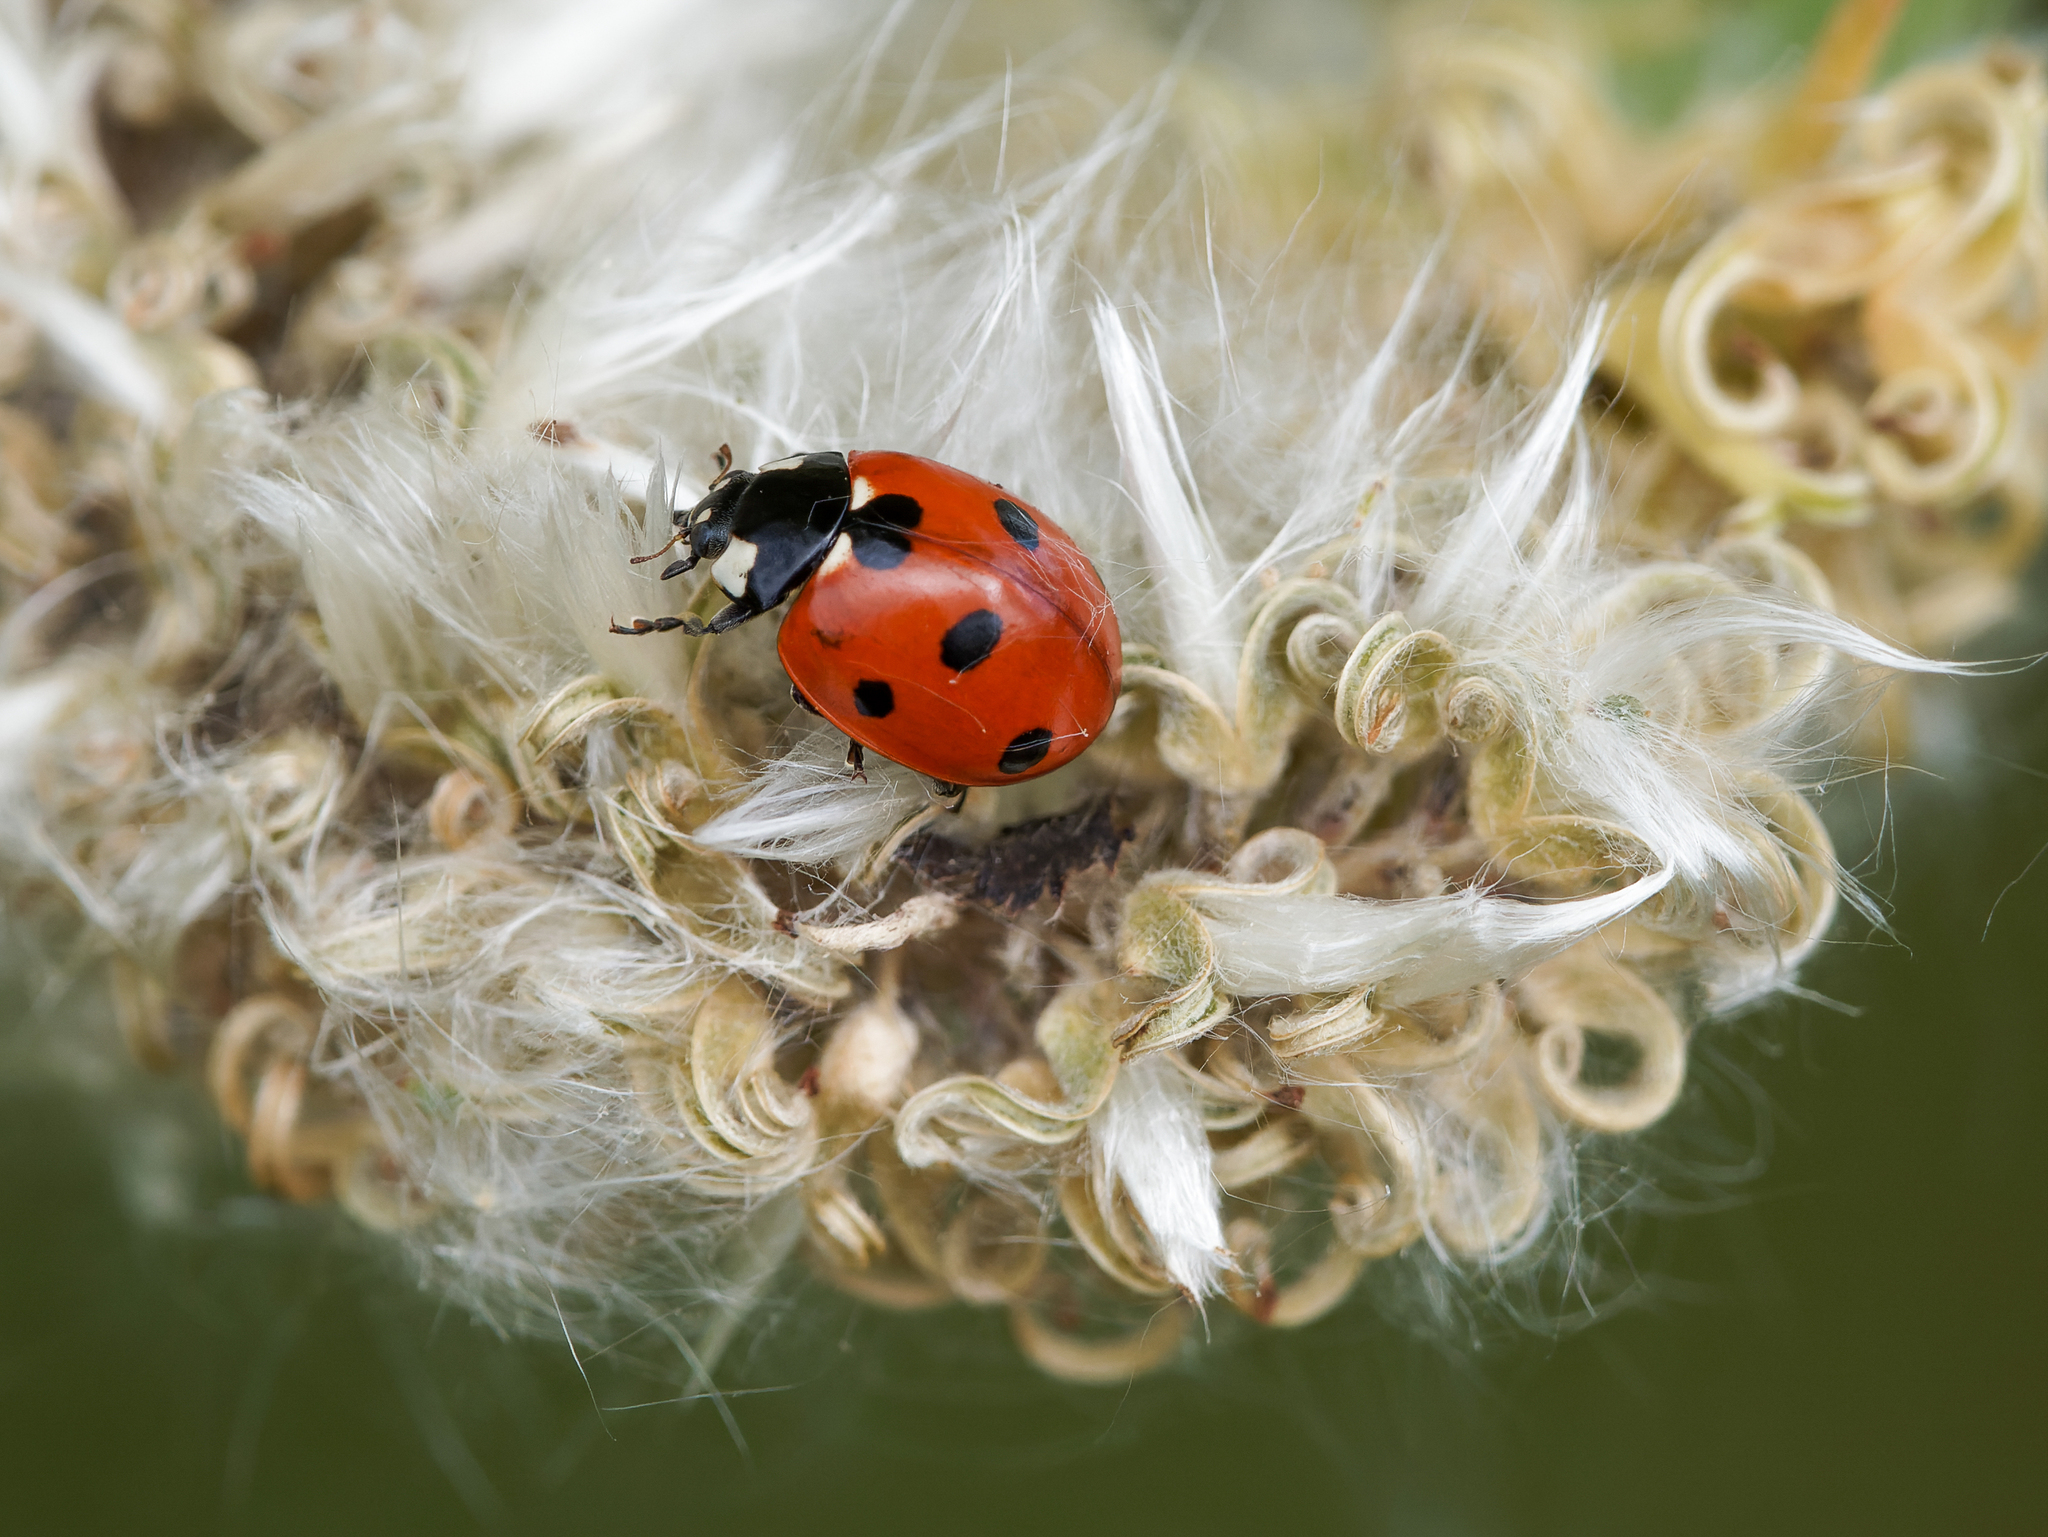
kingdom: Animalia
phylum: Arthropoda
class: Insecta
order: Coleoptera
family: Coccinellidae
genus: Coccinella
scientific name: Coccinella septempunctata
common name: Sevenspotted lady beetle
